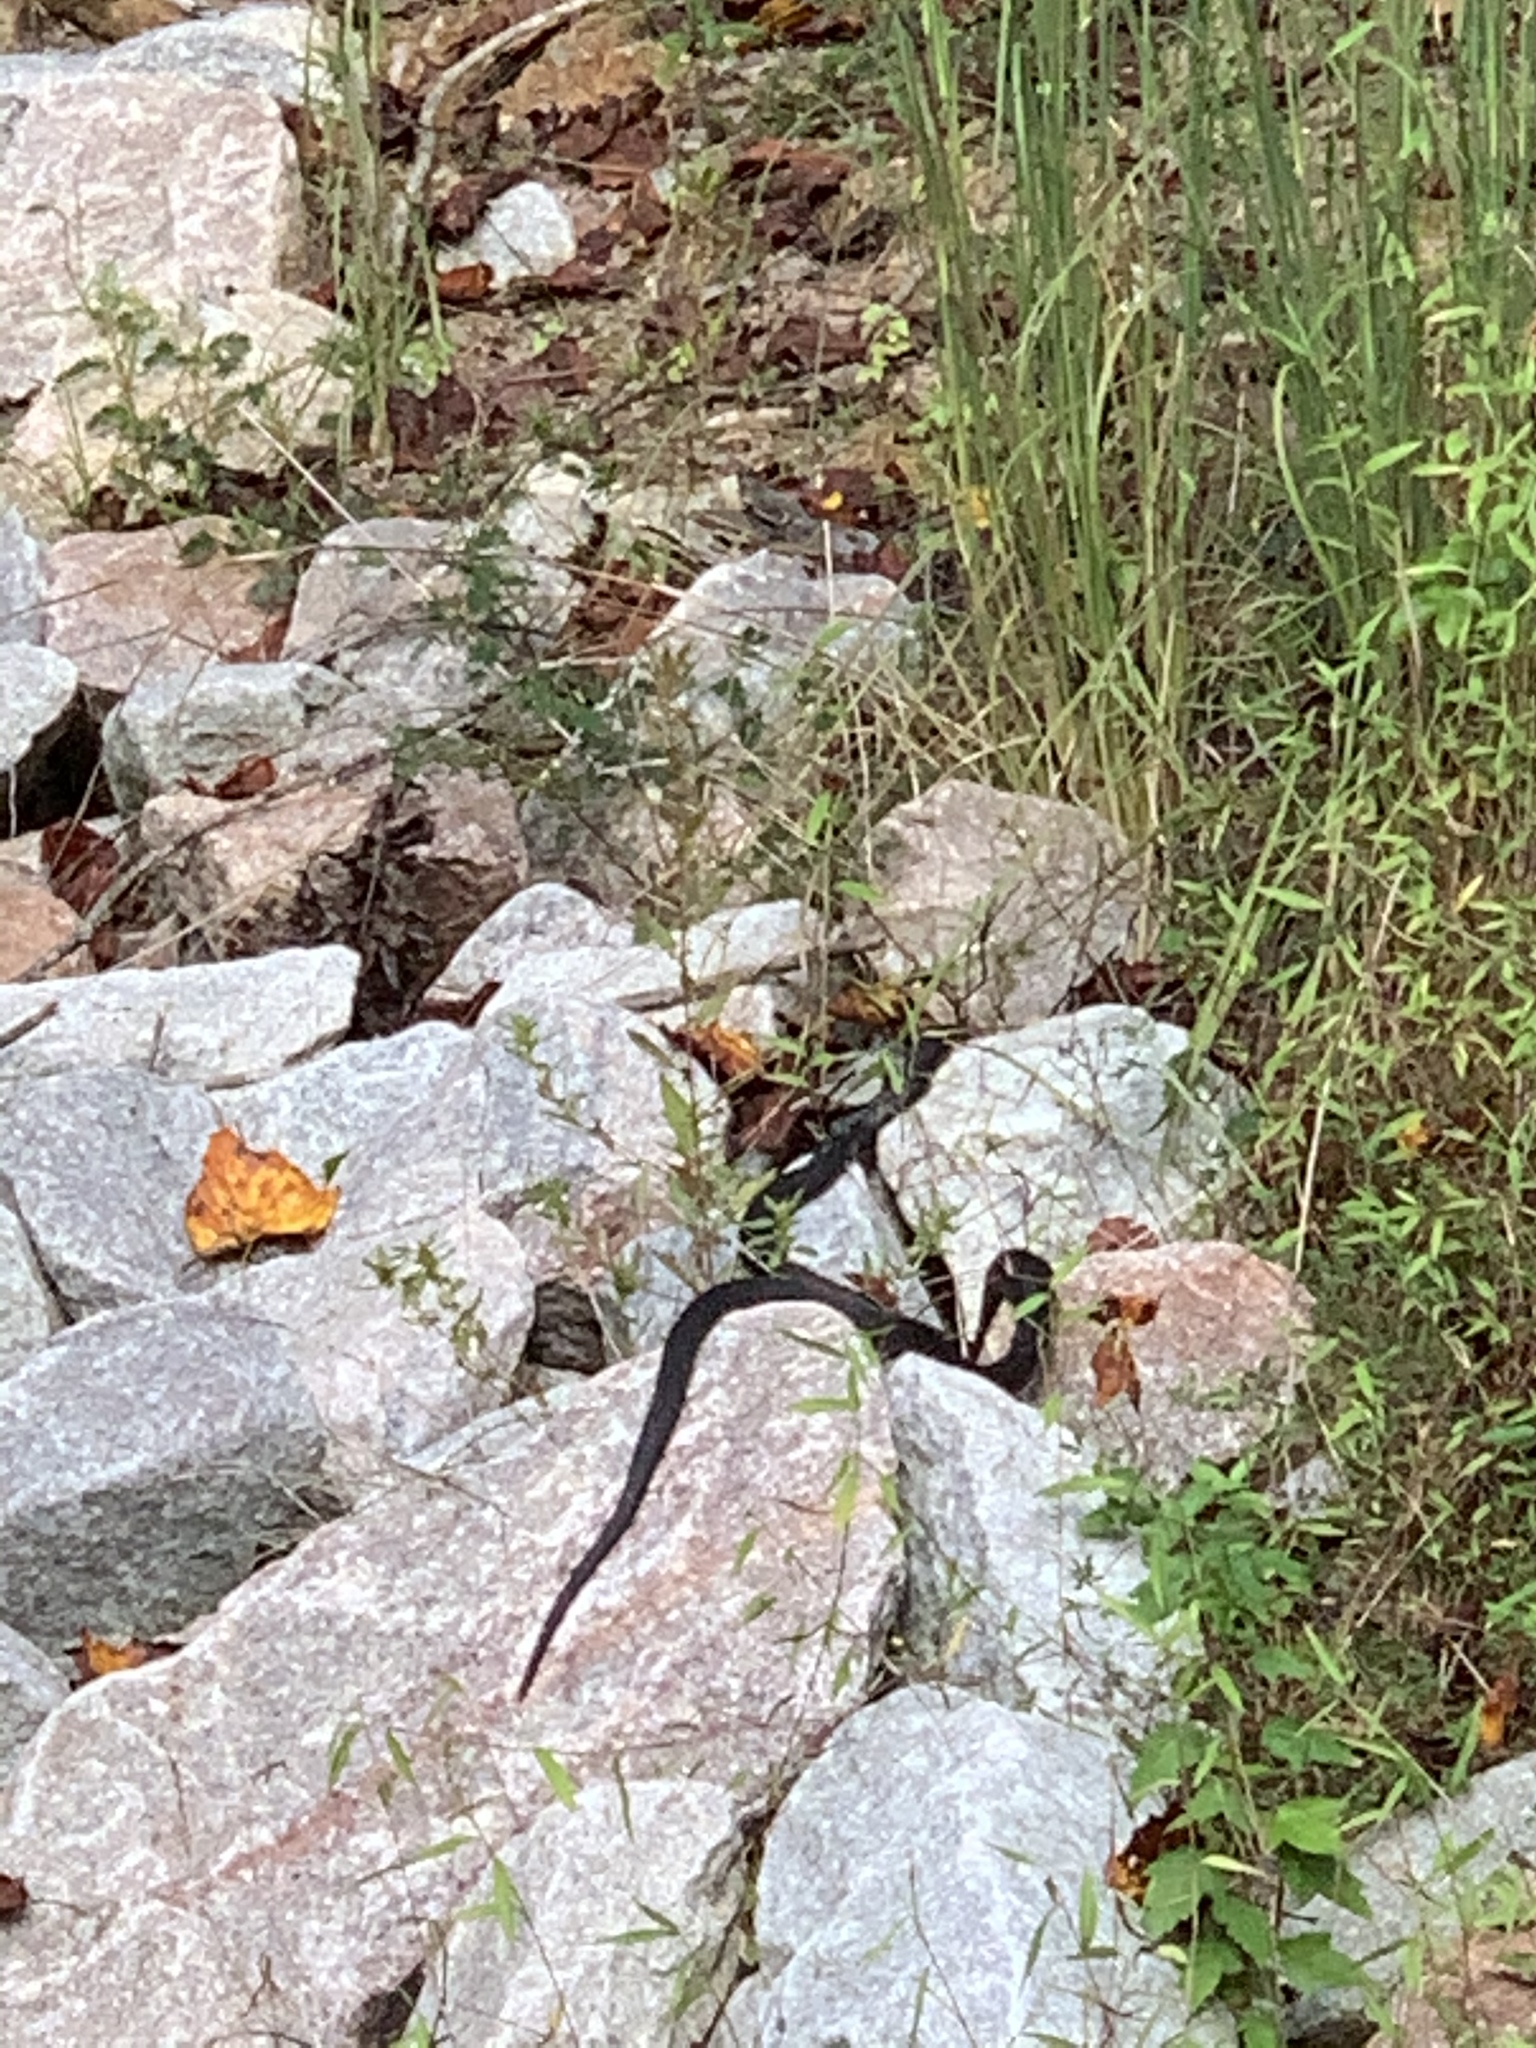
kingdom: Animalia
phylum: Chordata
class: Squamata
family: Colubridae
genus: Coluber
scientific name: Coluber constrictor
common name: Eastern racer
